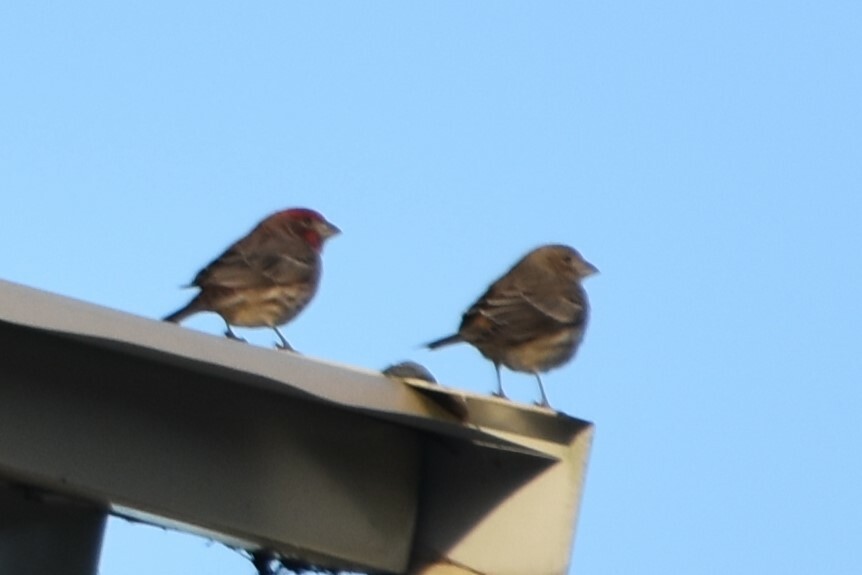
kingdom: Animalia
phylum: Chordata
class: Aves
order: Passeriformes
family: Fringillidae
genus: Haemorhous
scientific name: Haemorhous mexicanus
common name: House finch
